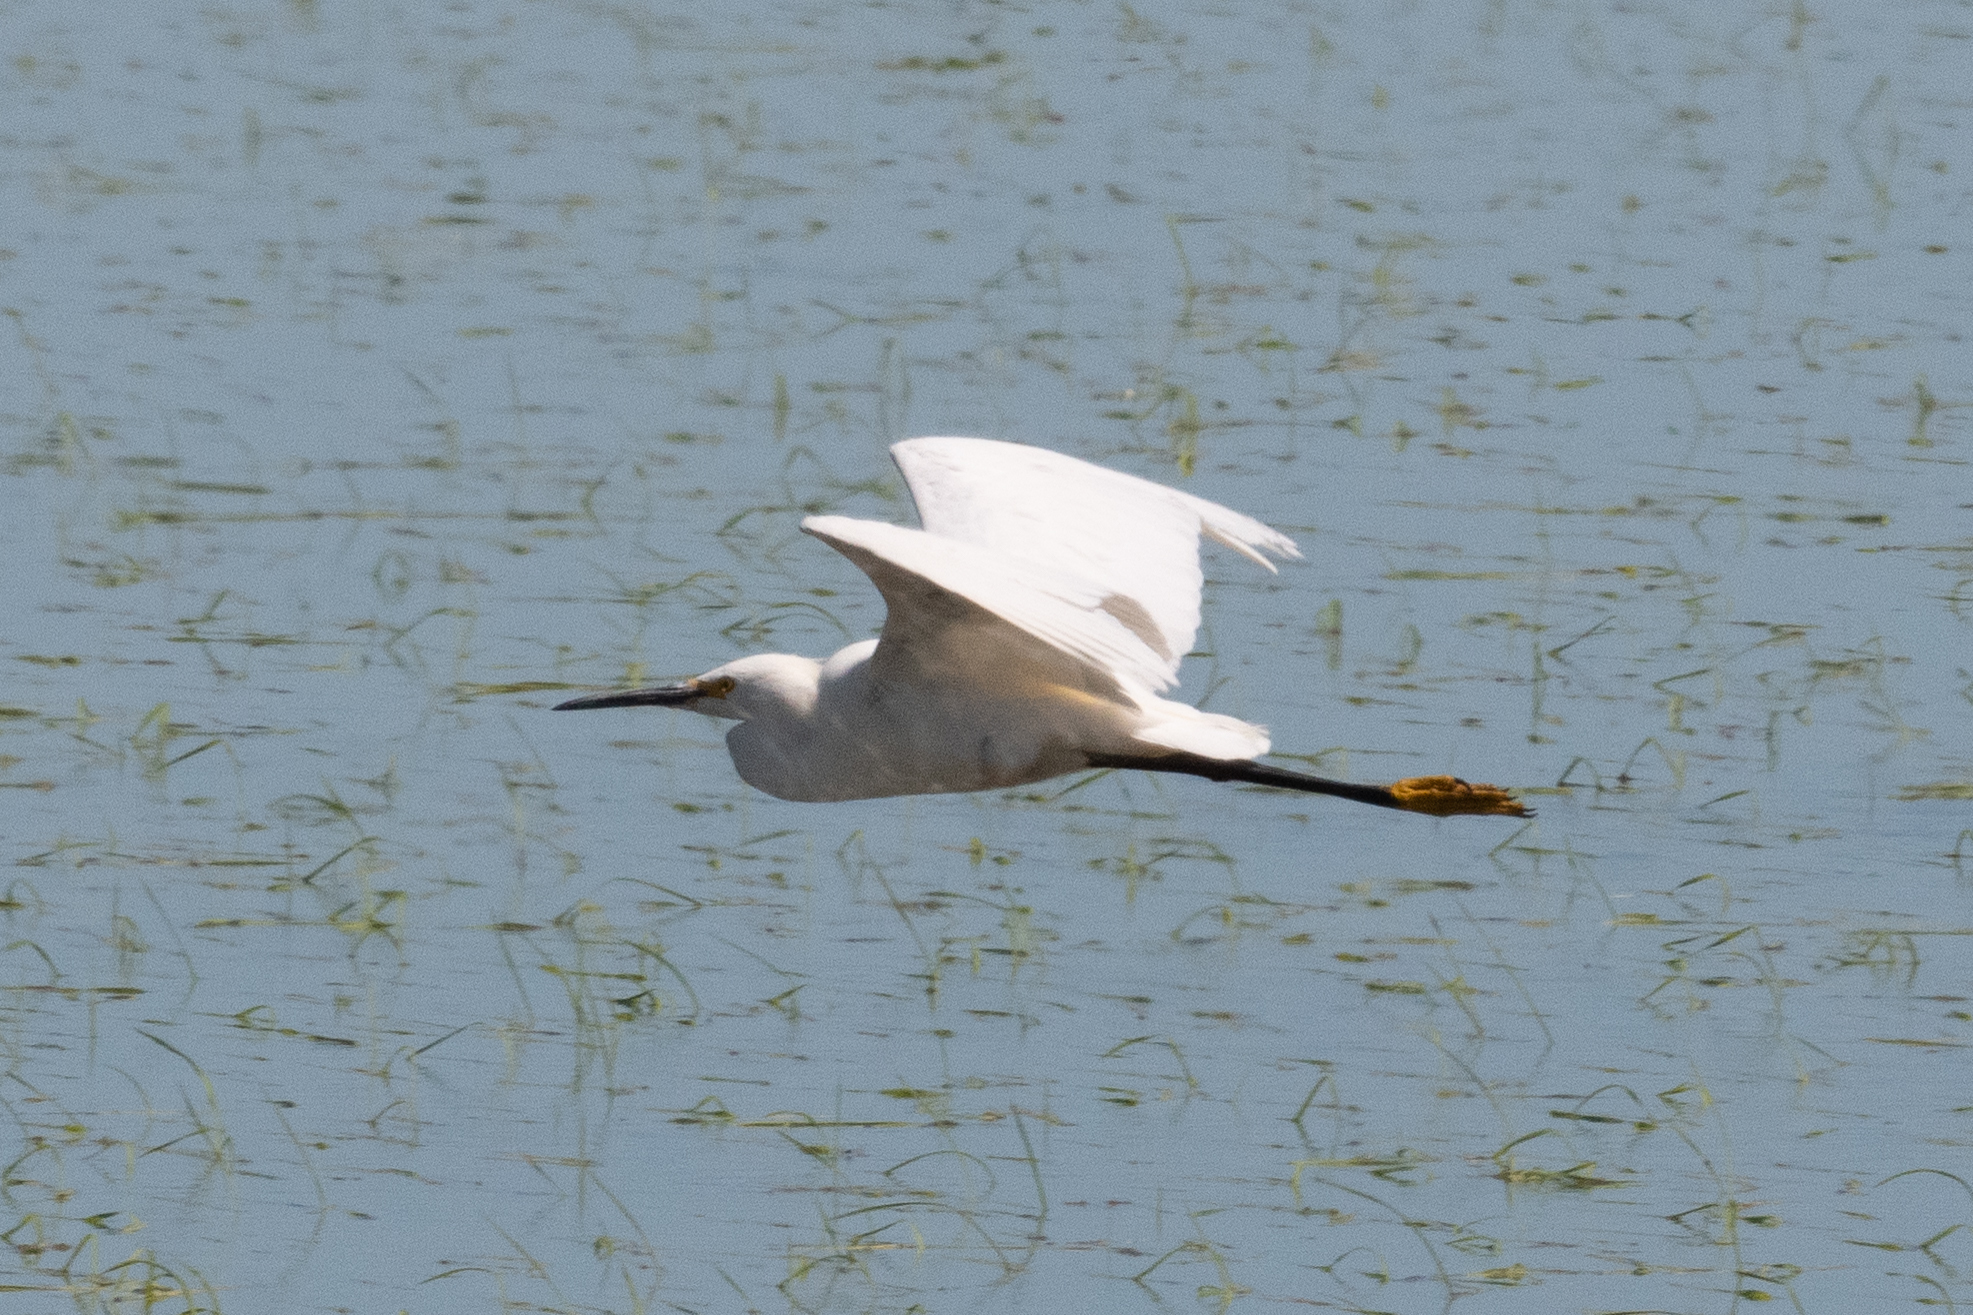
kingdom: Animalia
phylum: Chordata
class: Aves
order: Pelecaniformes
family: Ardeidae
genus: Egretta
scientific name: Egretta thula
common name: Snowy egret
